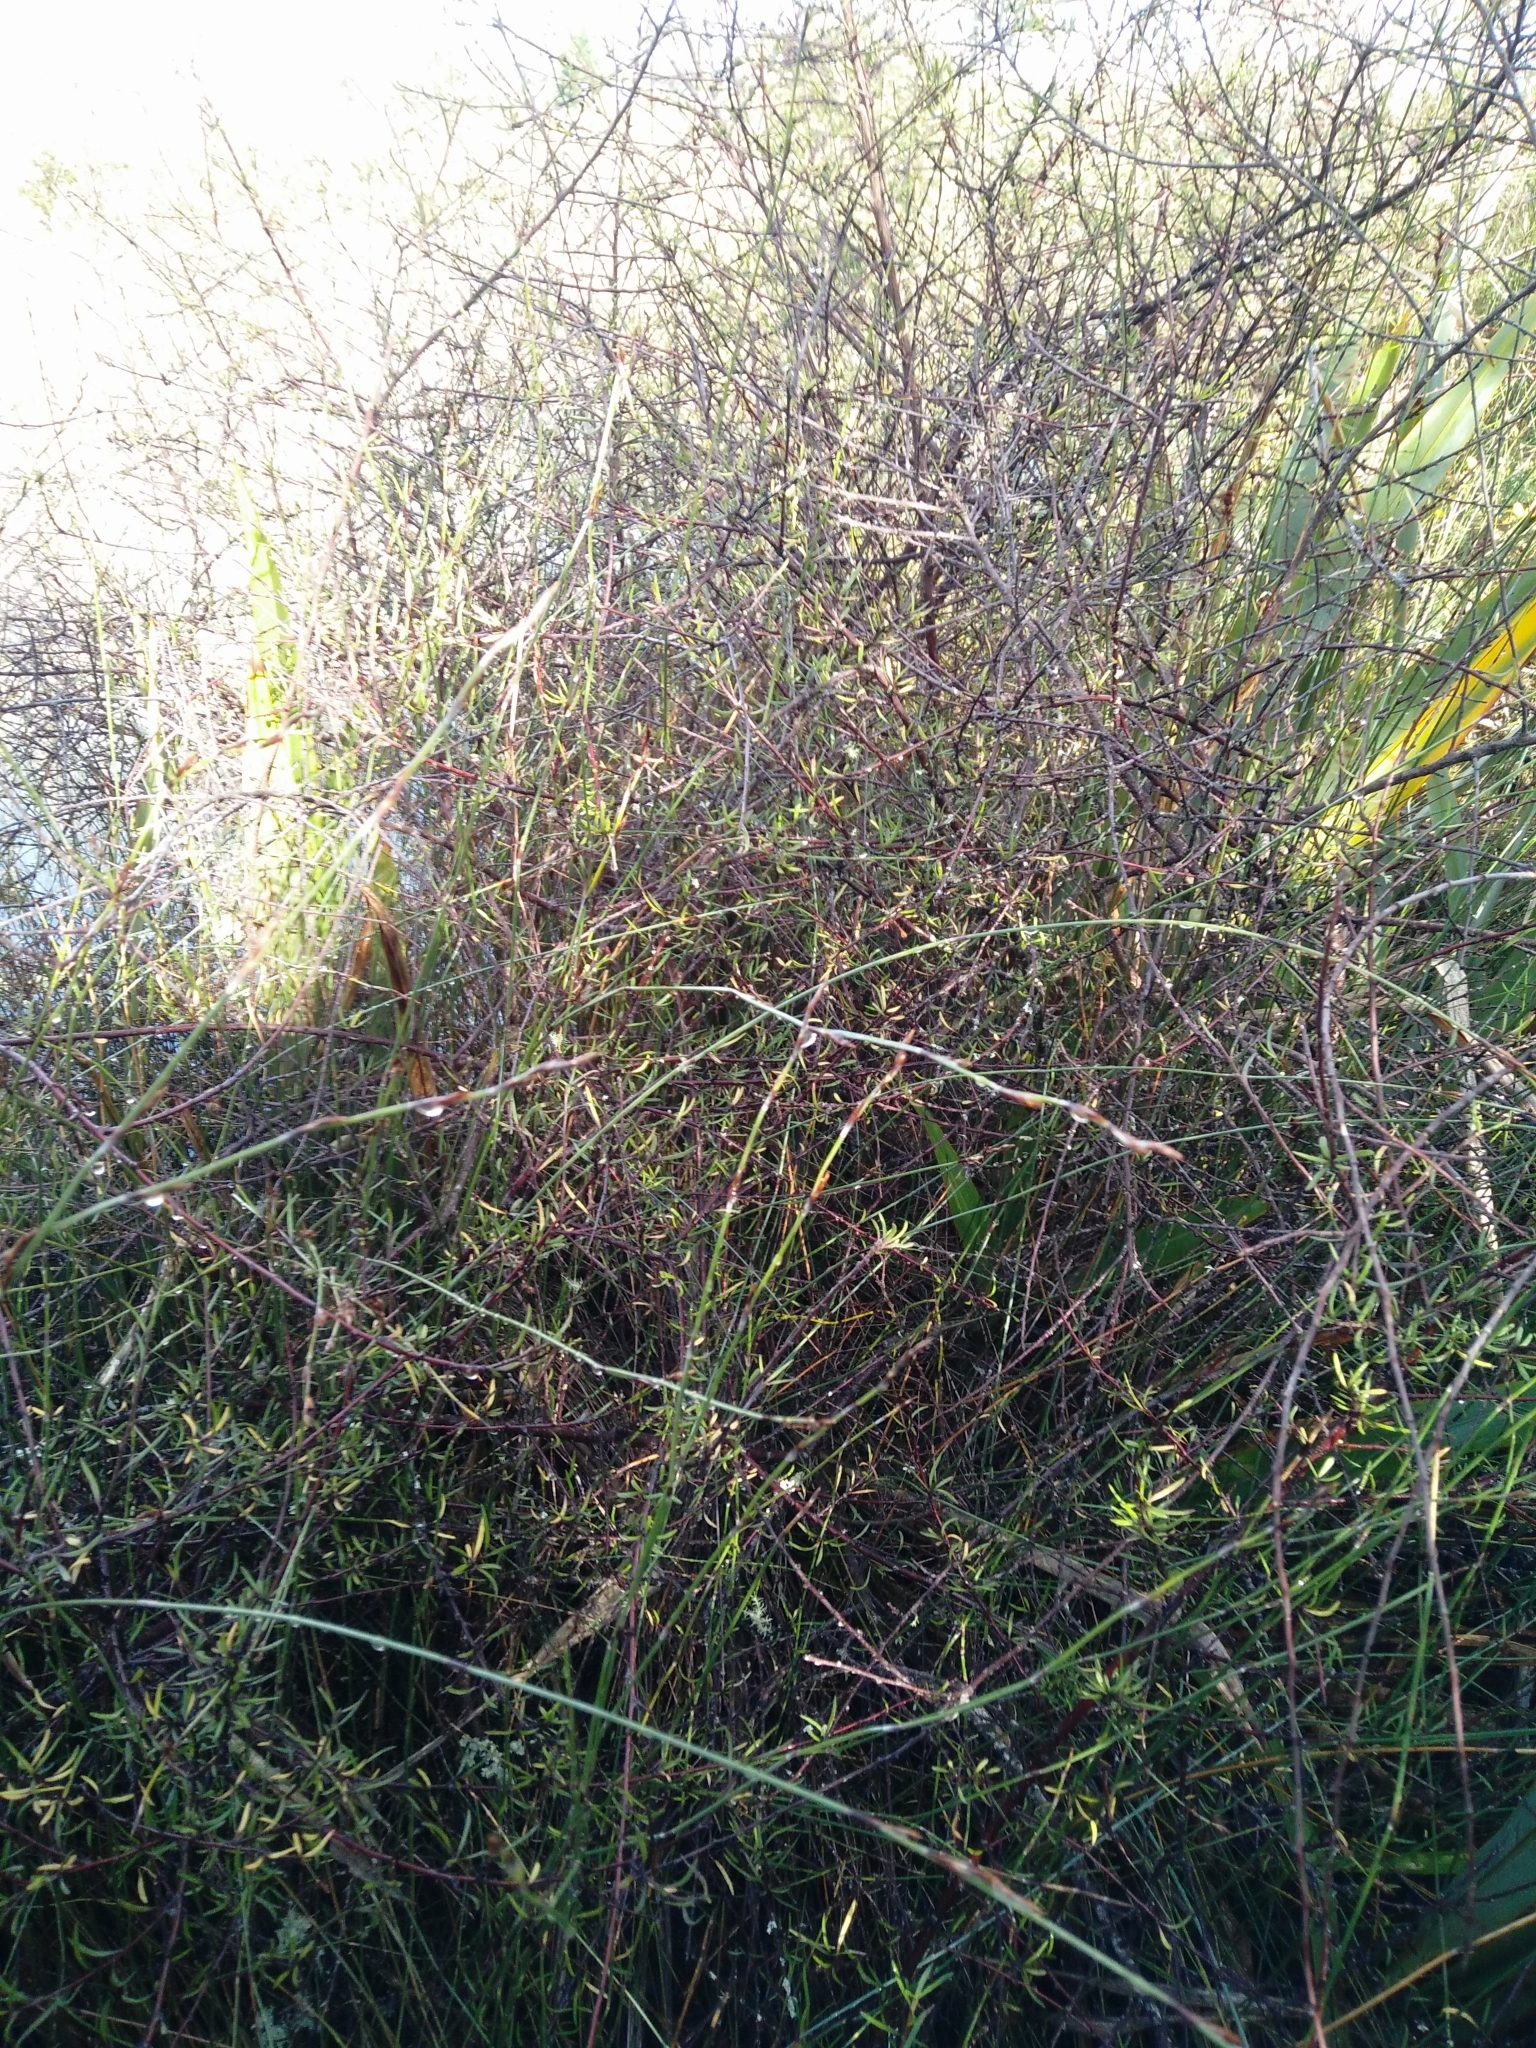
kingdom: Plantae
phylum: Tracheophyta
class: Magnoliopsida
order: Malvales
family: Malvaceae
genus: Plagianthus
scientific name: Plagianthus divaricatus
